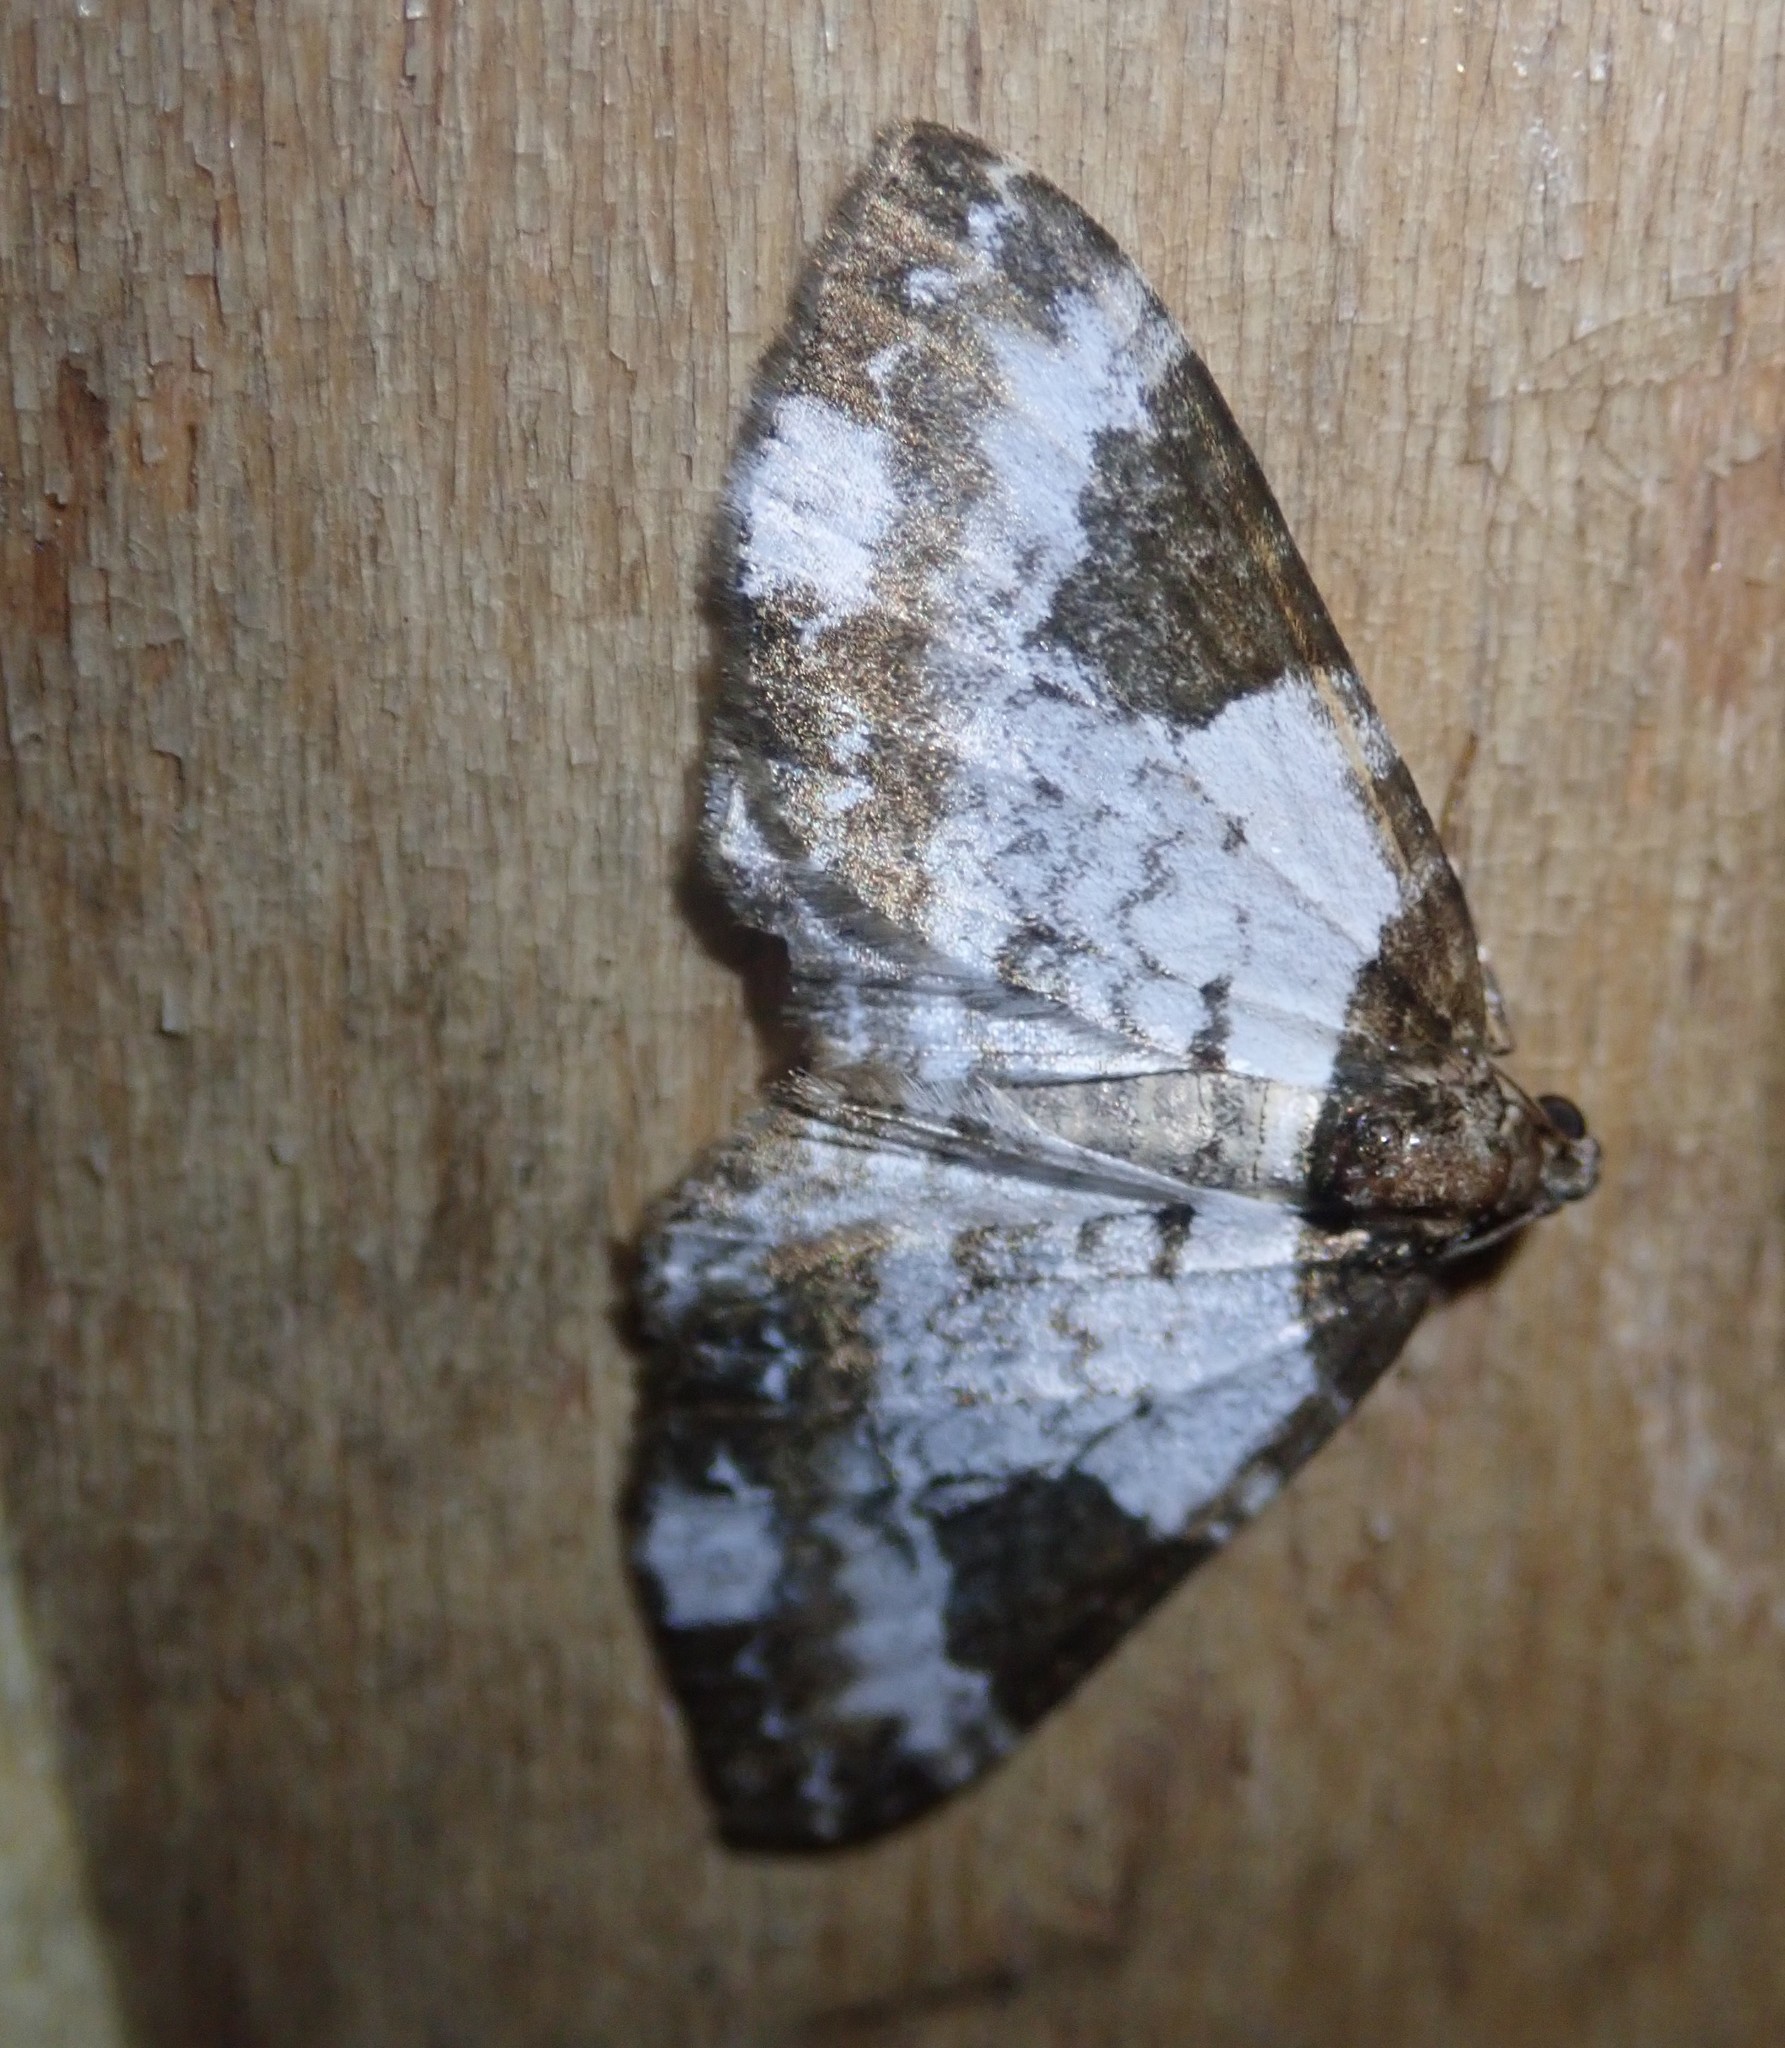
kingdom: Animalia
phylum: Arthropoda
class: Insecta
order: Lepidoptera
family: Geometridae
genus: Melanthia
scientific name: Melanthia procellata
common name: Pretty chalk carpet
